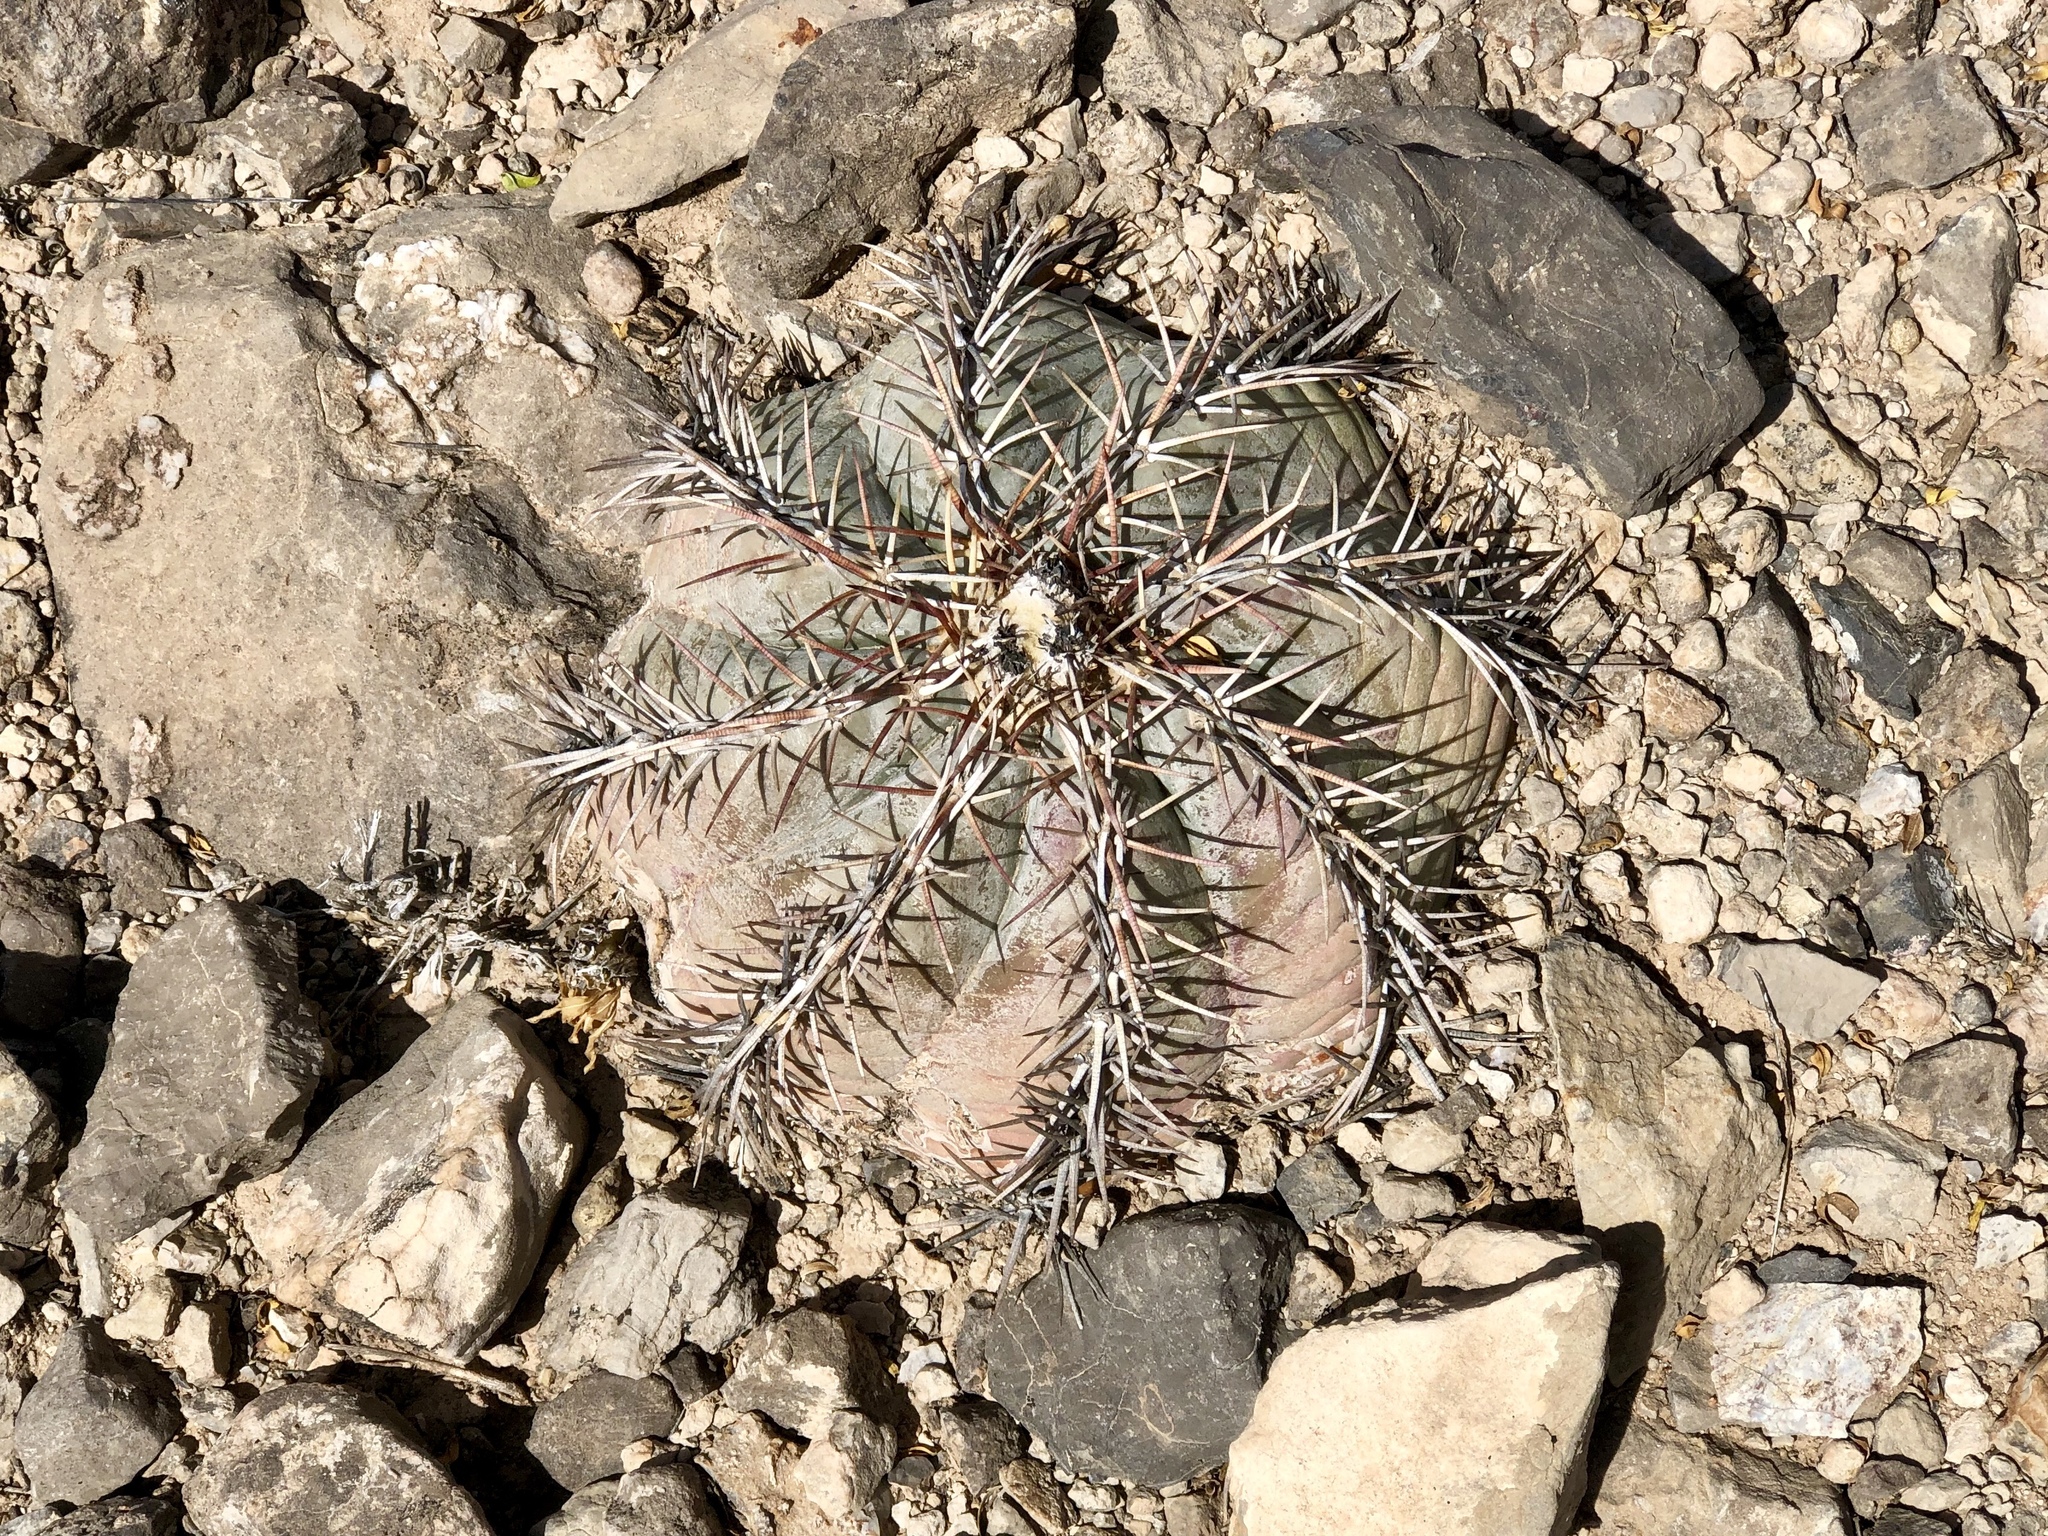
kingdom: Plantae
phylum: Tracheophyta
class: Magnoliopsida
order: Caryophyllales
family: Cactaceae
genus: Echinocactus
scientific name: Echinocactus horizonthalonius
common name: Devilshead
